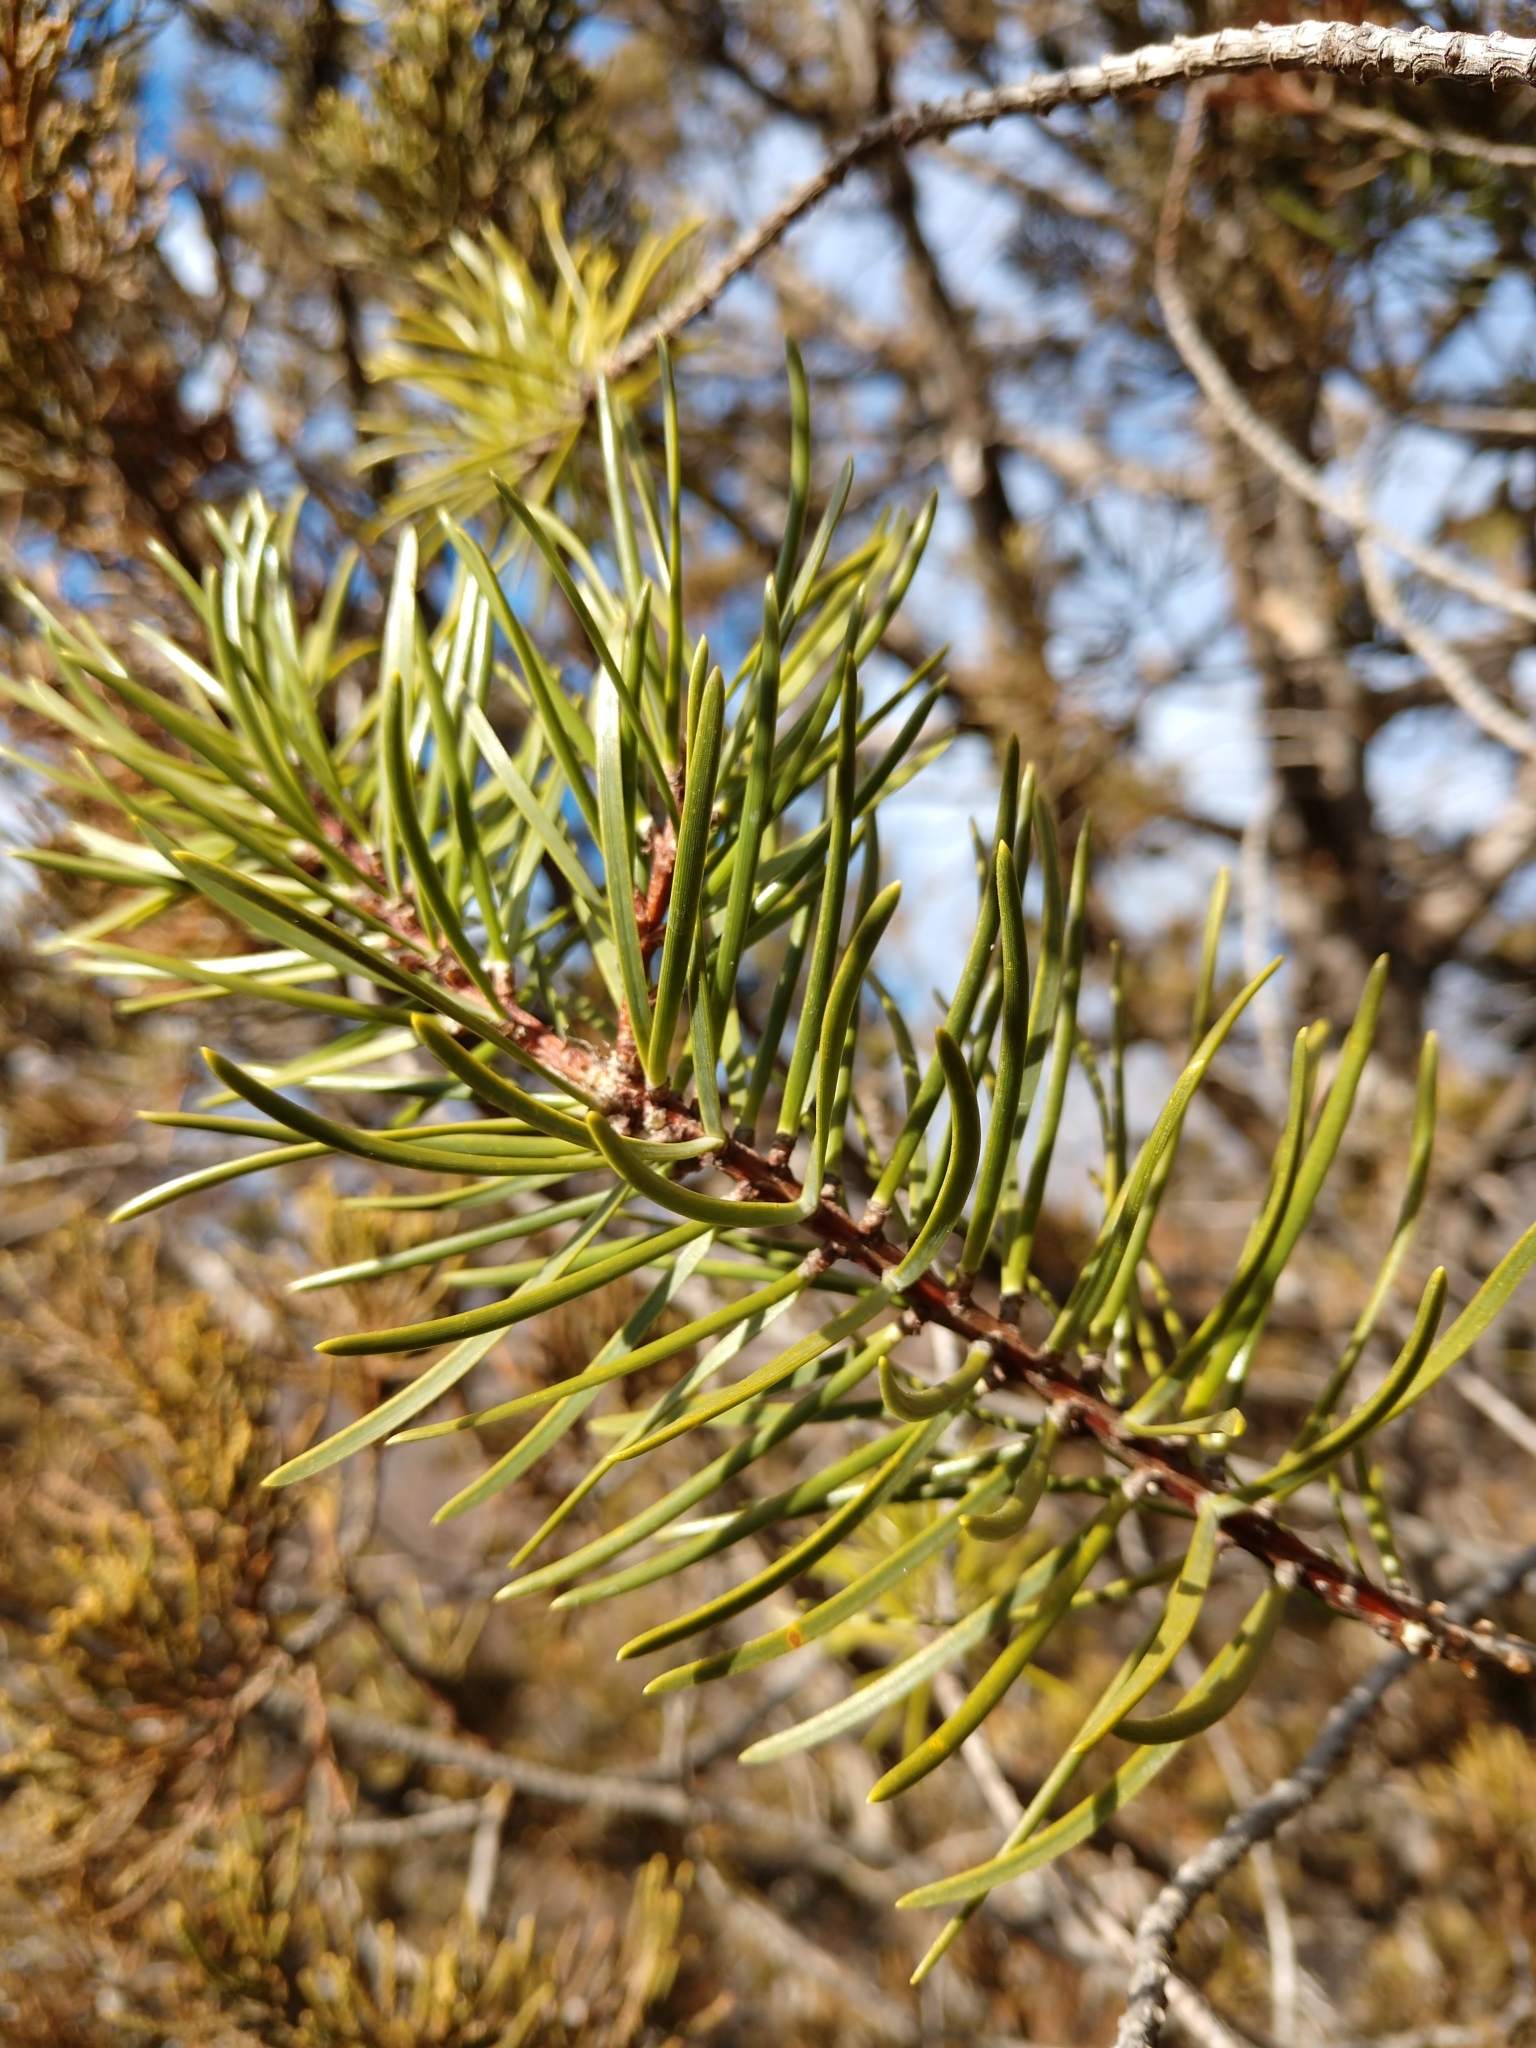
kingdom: Plantae
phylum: Tracheophyta
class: Pinopsida
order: Pinales
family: Pinaceae
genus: Pinus
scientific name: Pinus banksiana
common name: Jack pine
